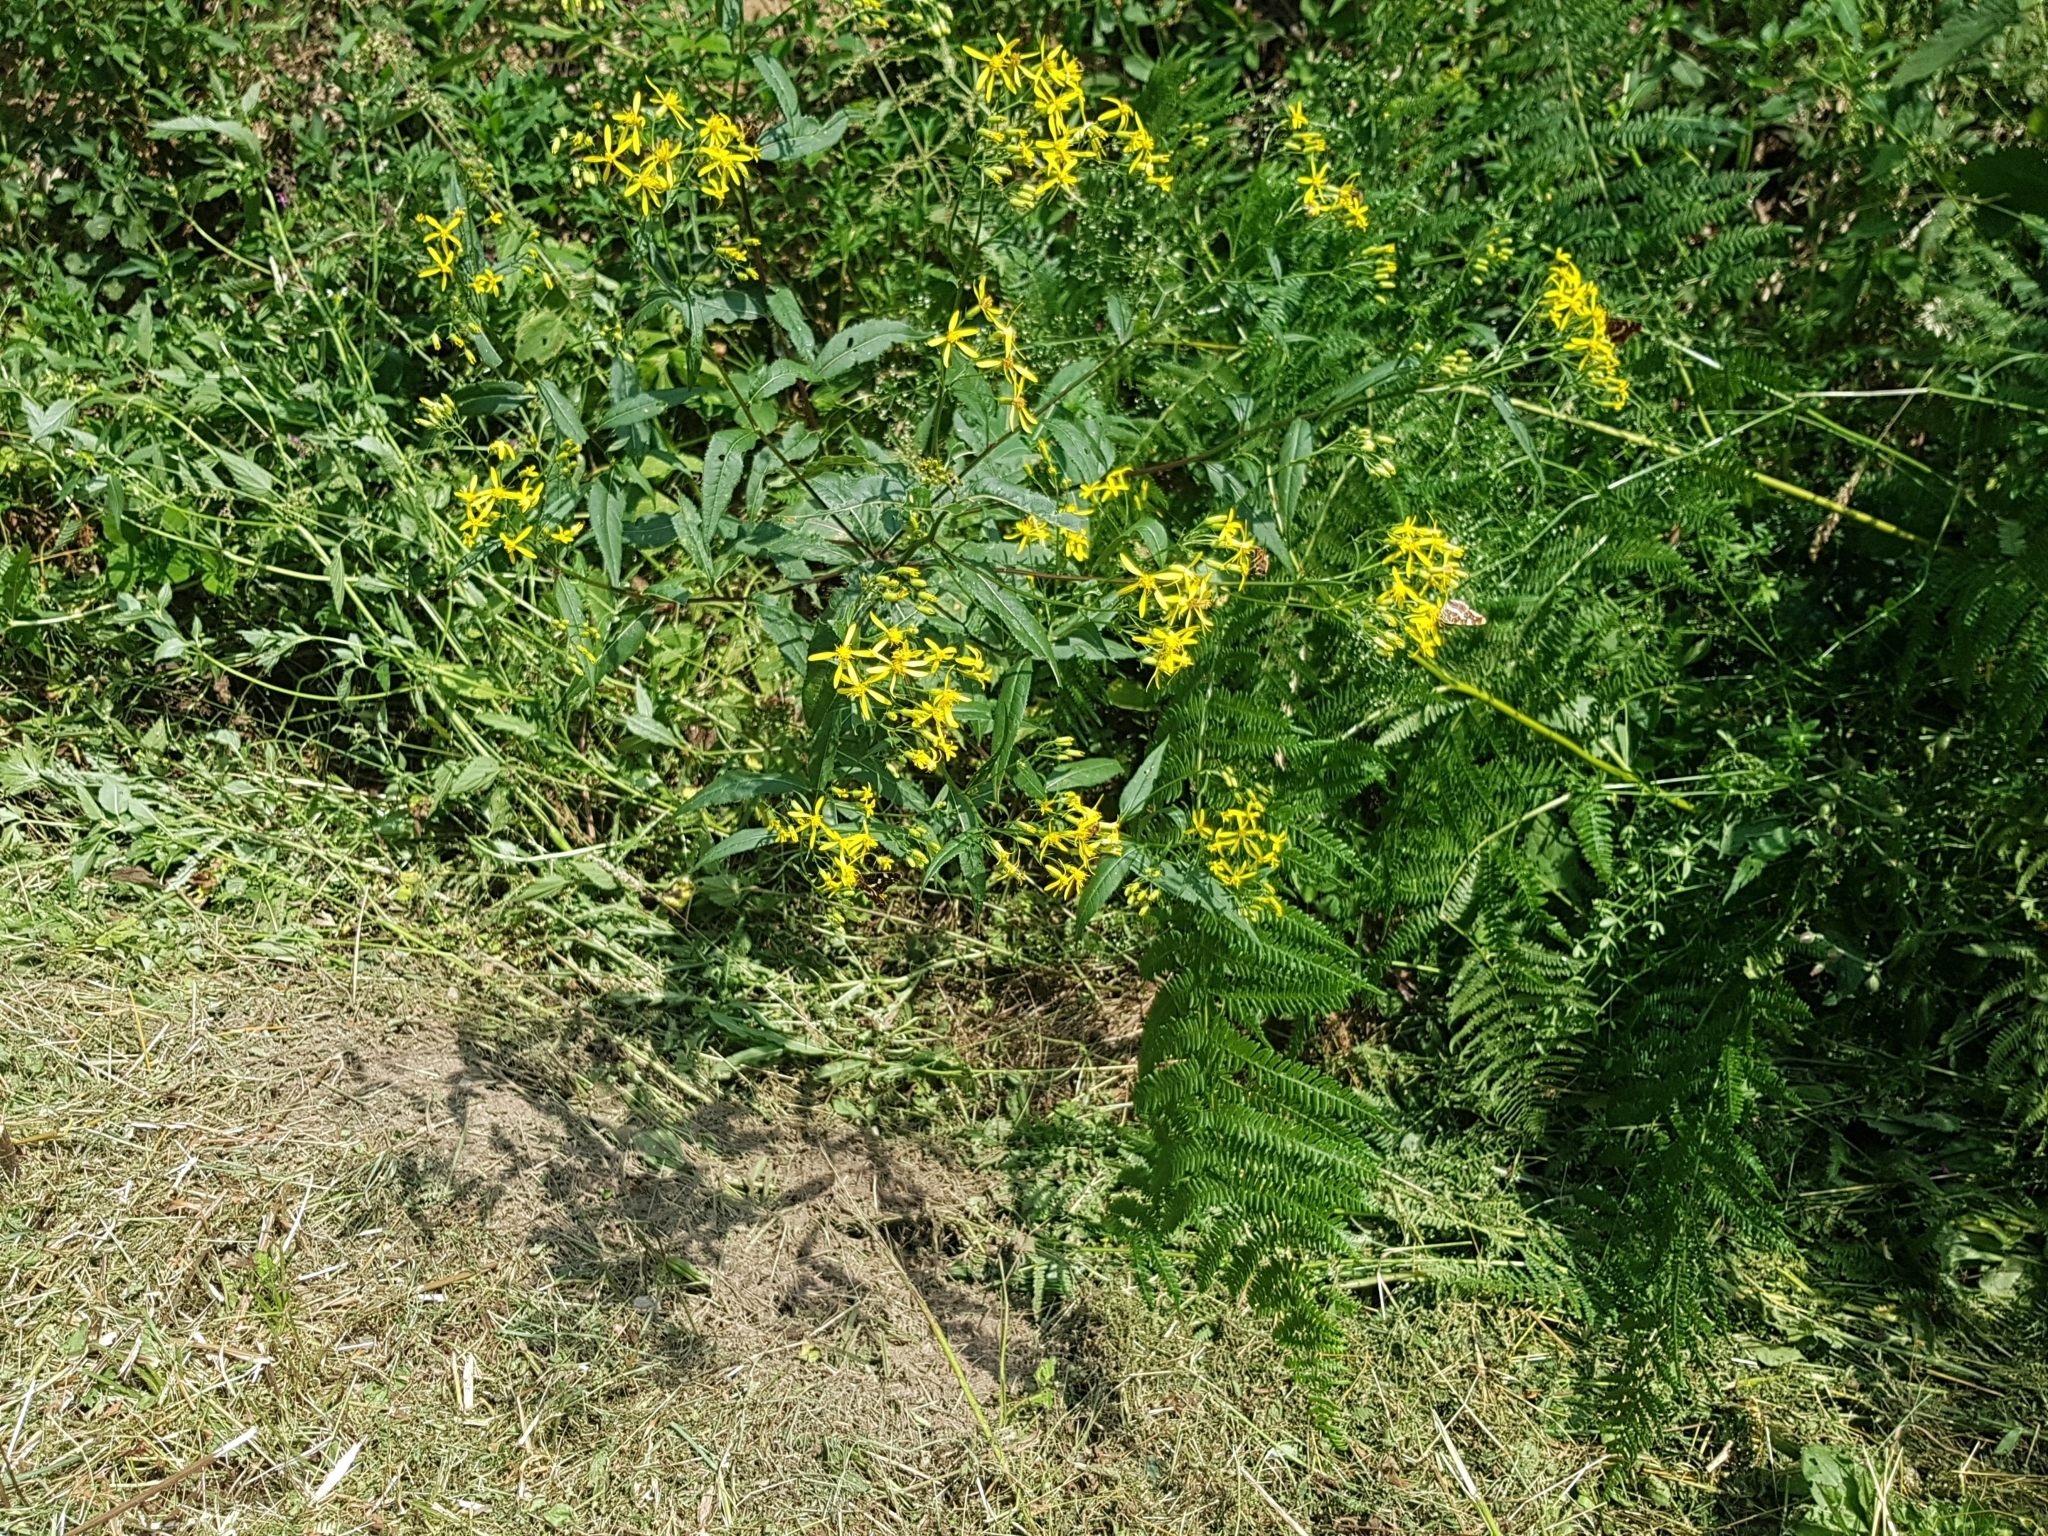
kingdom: Plantae
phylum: Tracheophyta
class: Magnoliopsida
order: Asterales
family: Asteraceae
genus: Senecio
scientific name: Senecio ovatus
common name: Wood ragwort
